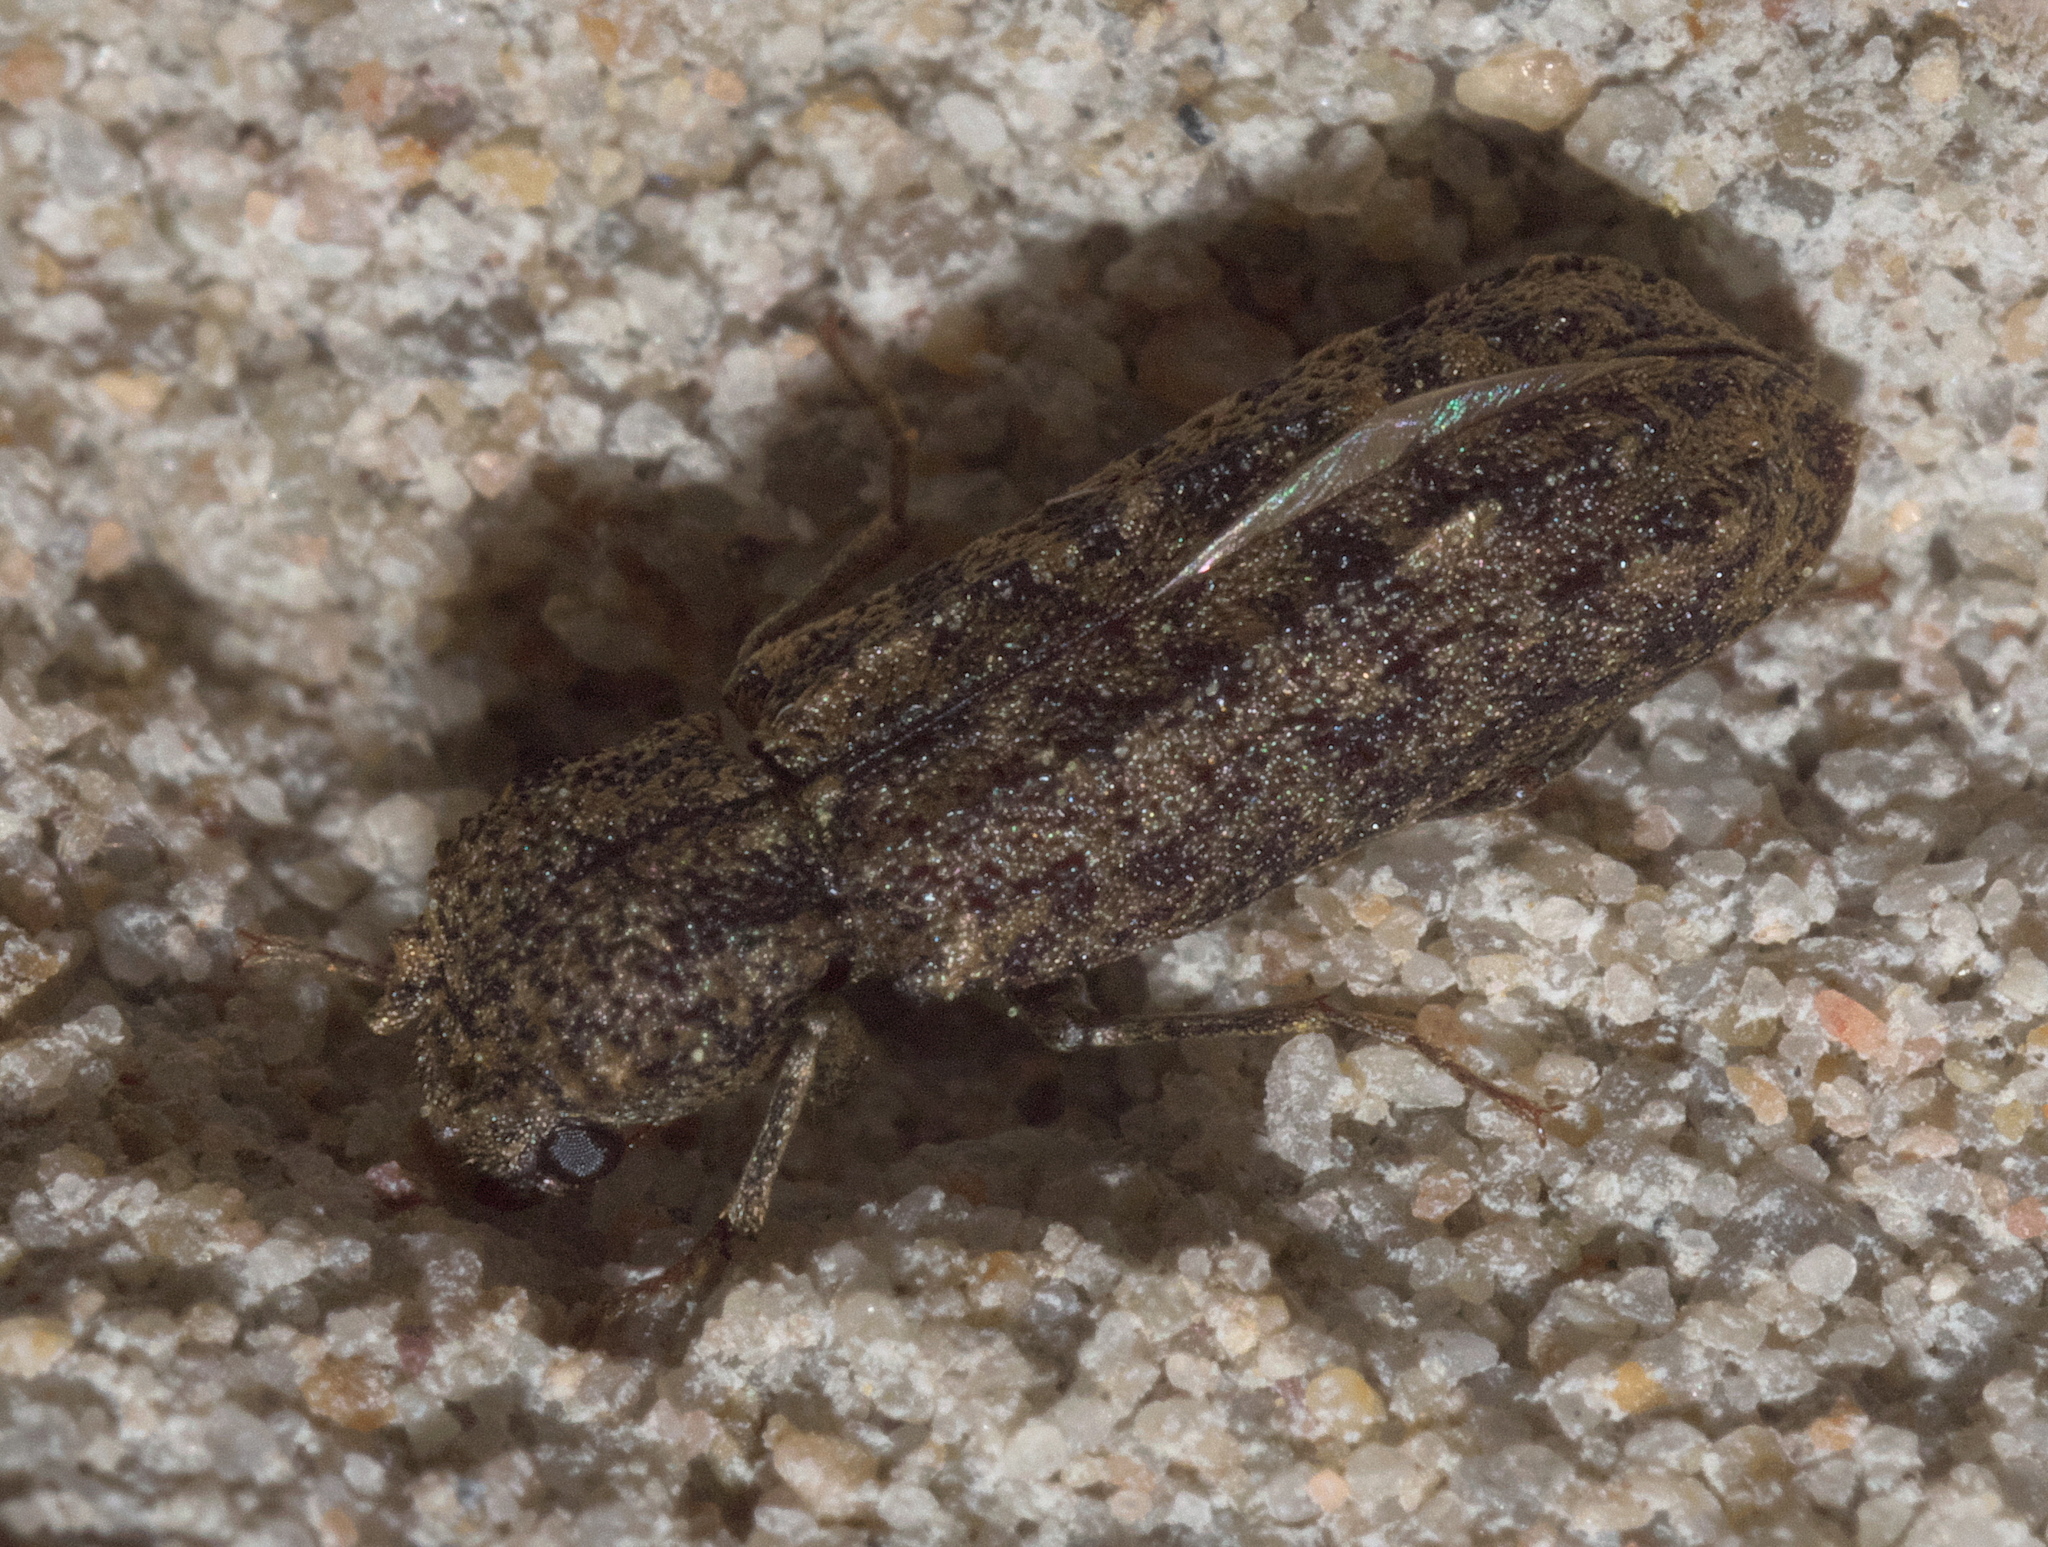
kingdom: Animalia
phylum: Arthropoda
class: Insecta
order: Coleoptera
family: Bostrichidae
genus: Lichenophanes
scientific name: Lichenophanes bicornis
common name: Two-horned powder-post beetle
